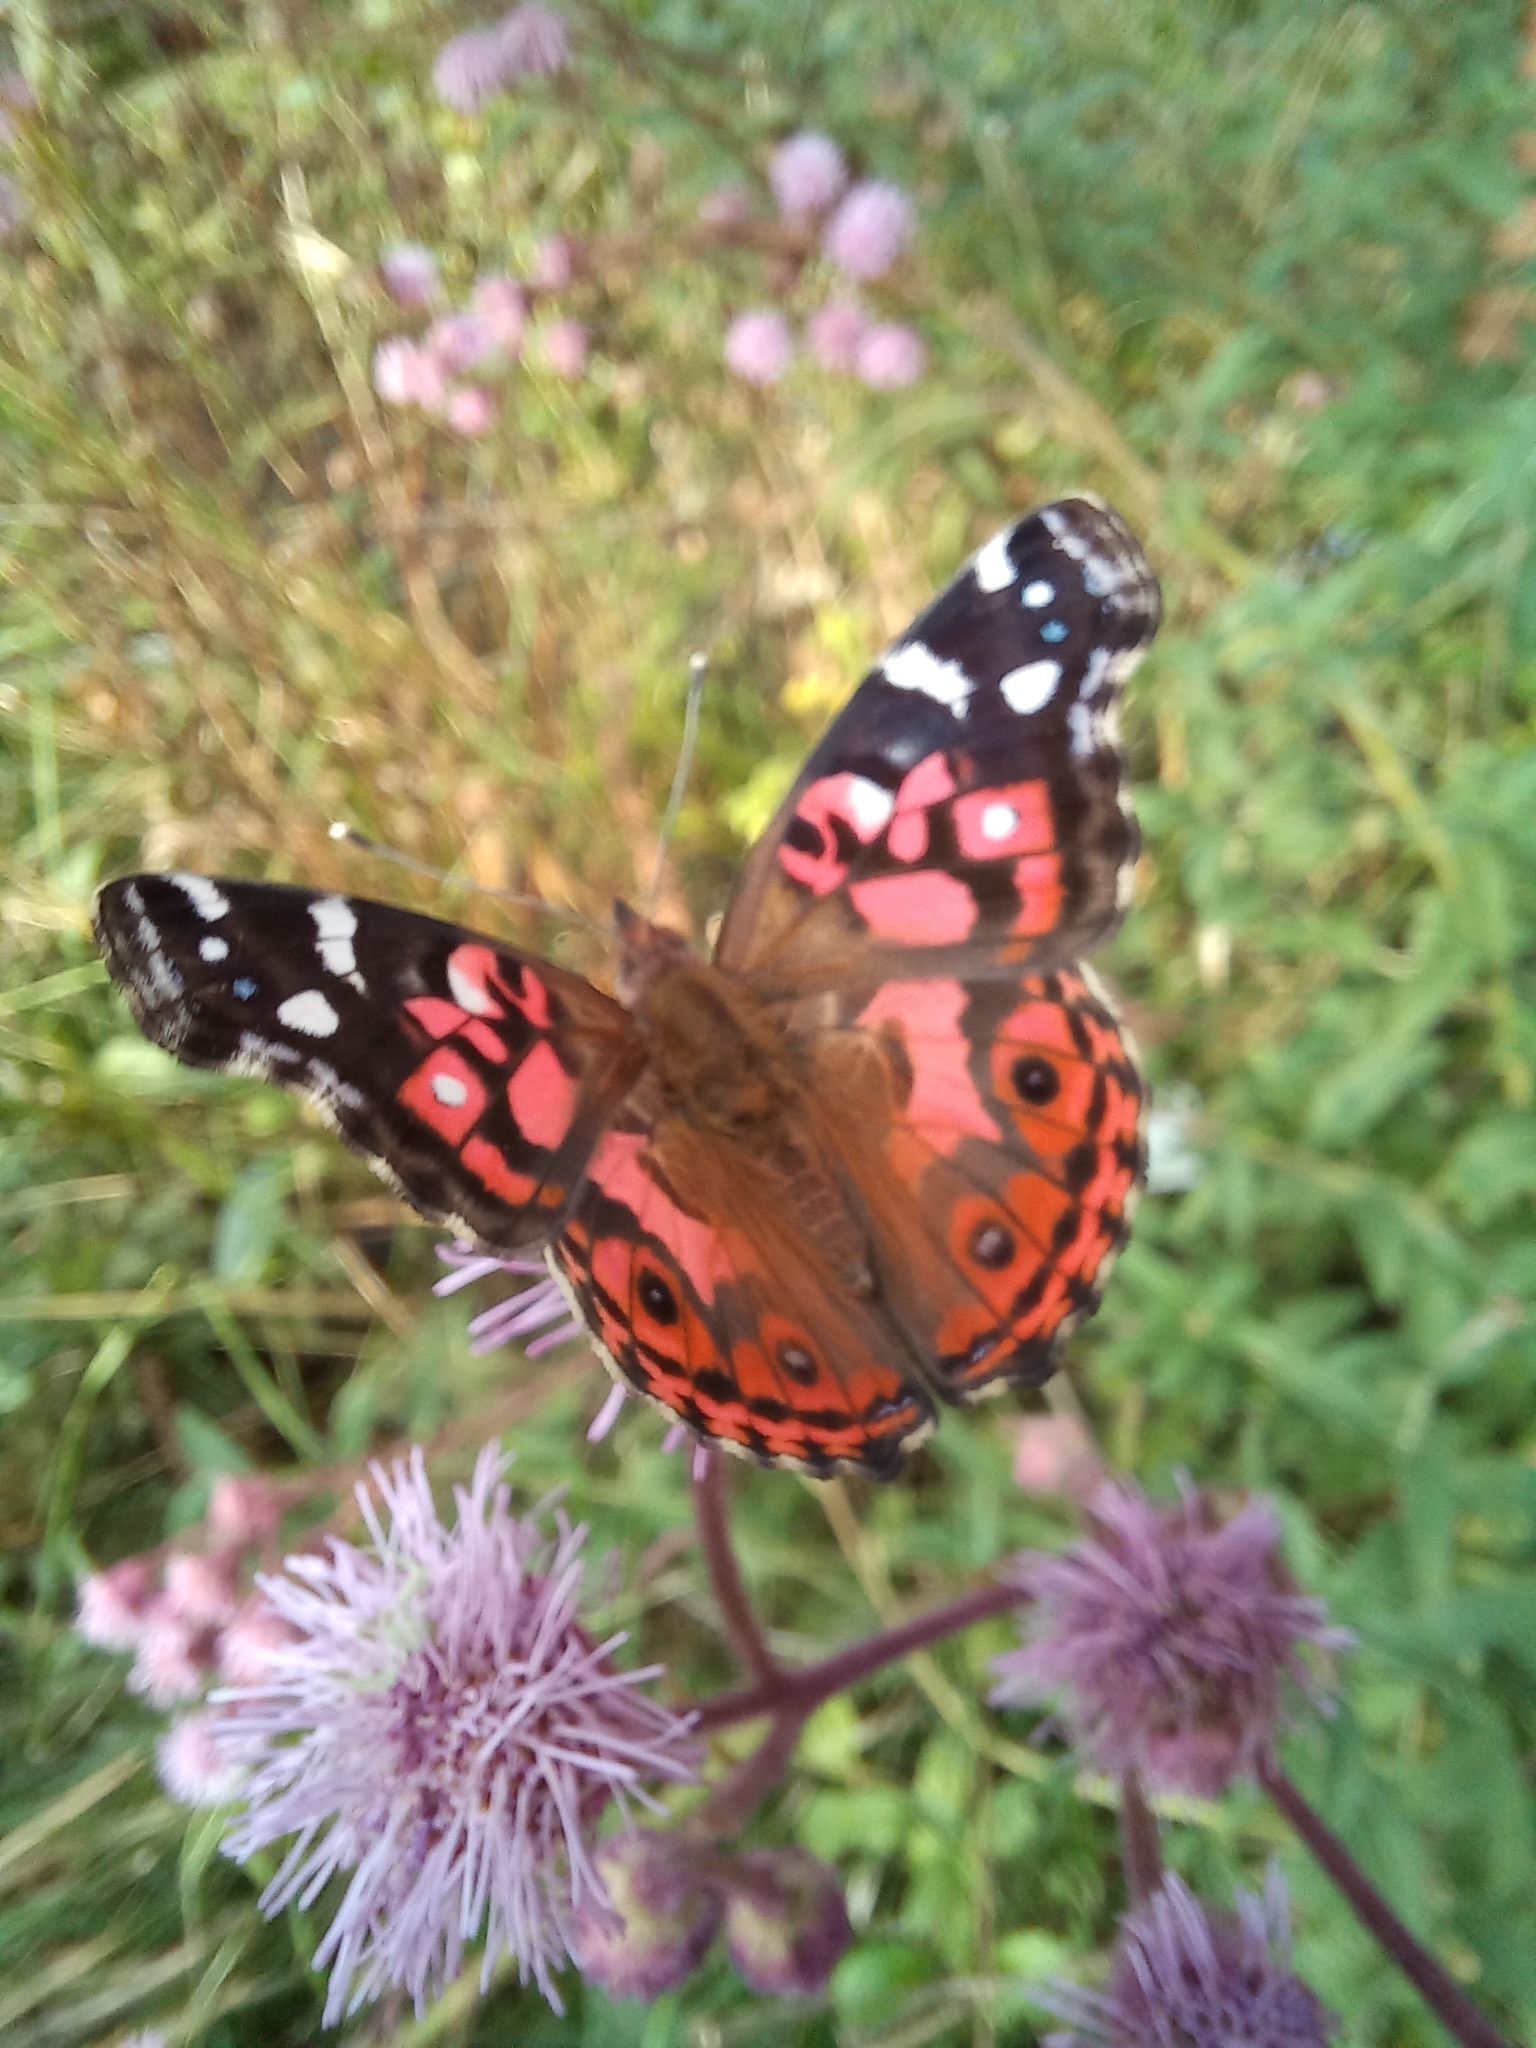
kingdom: Animalia
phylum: Arthropoda
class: Insecta
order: Lepidoptera
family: Nymphalidae
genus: Vanessa
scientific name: Vanessa braziliensis
